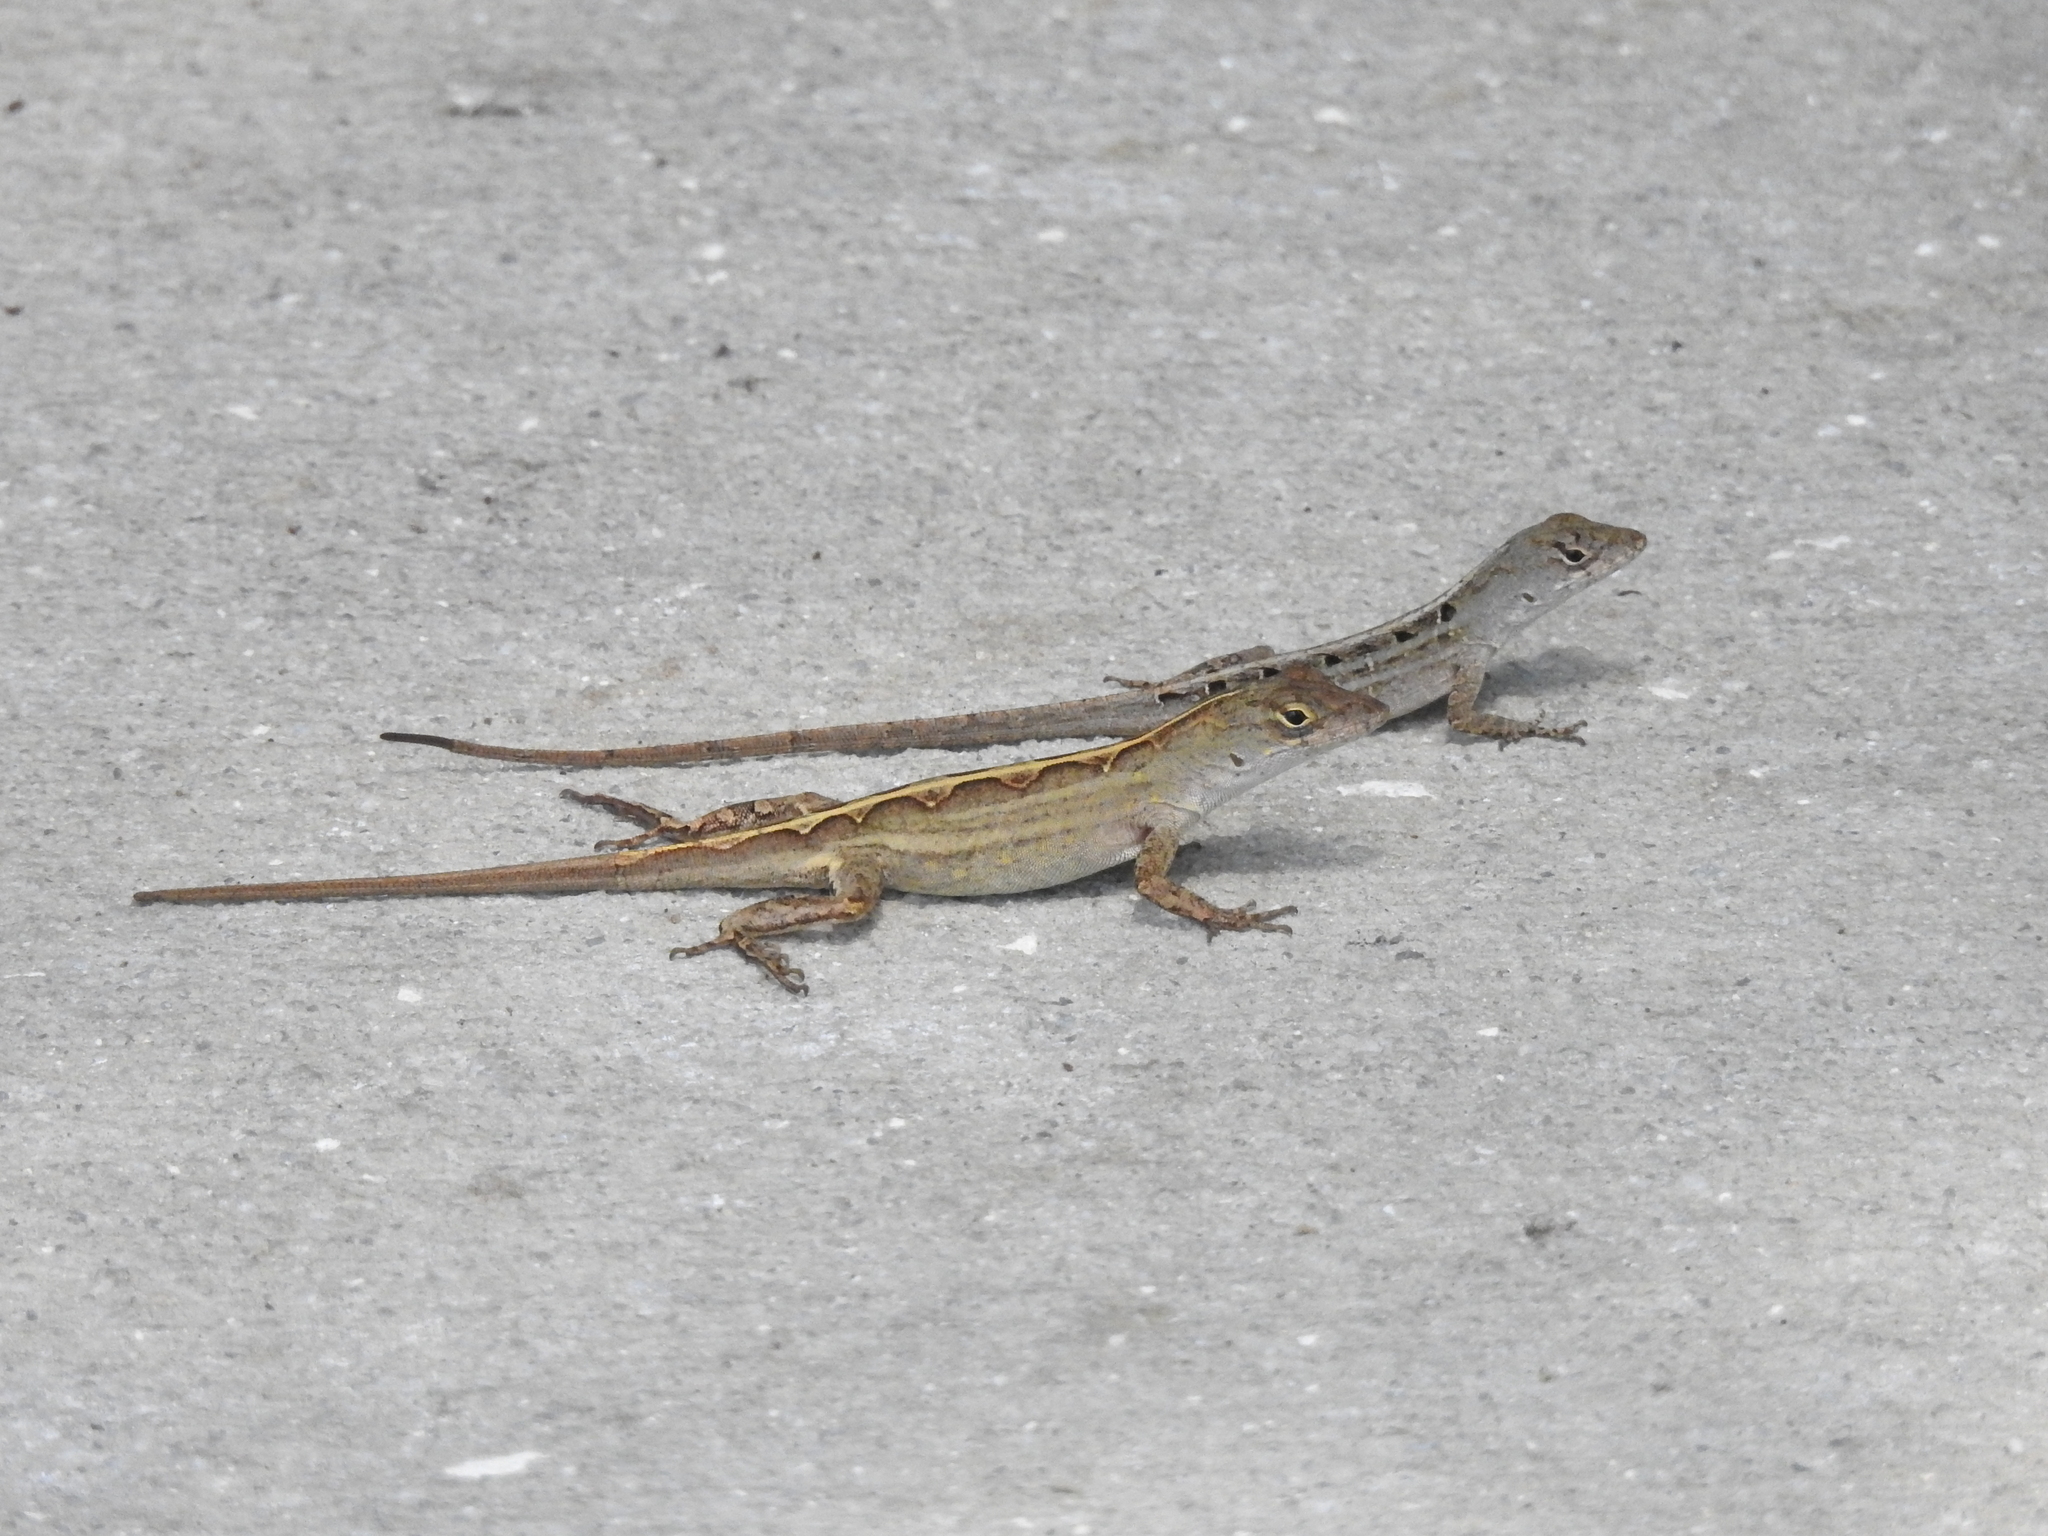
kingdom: Animalia
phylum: Chordata
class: Squamata
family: Dactyloidae
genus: Anolis
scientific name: Anolis sagrei
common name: Brown anole
